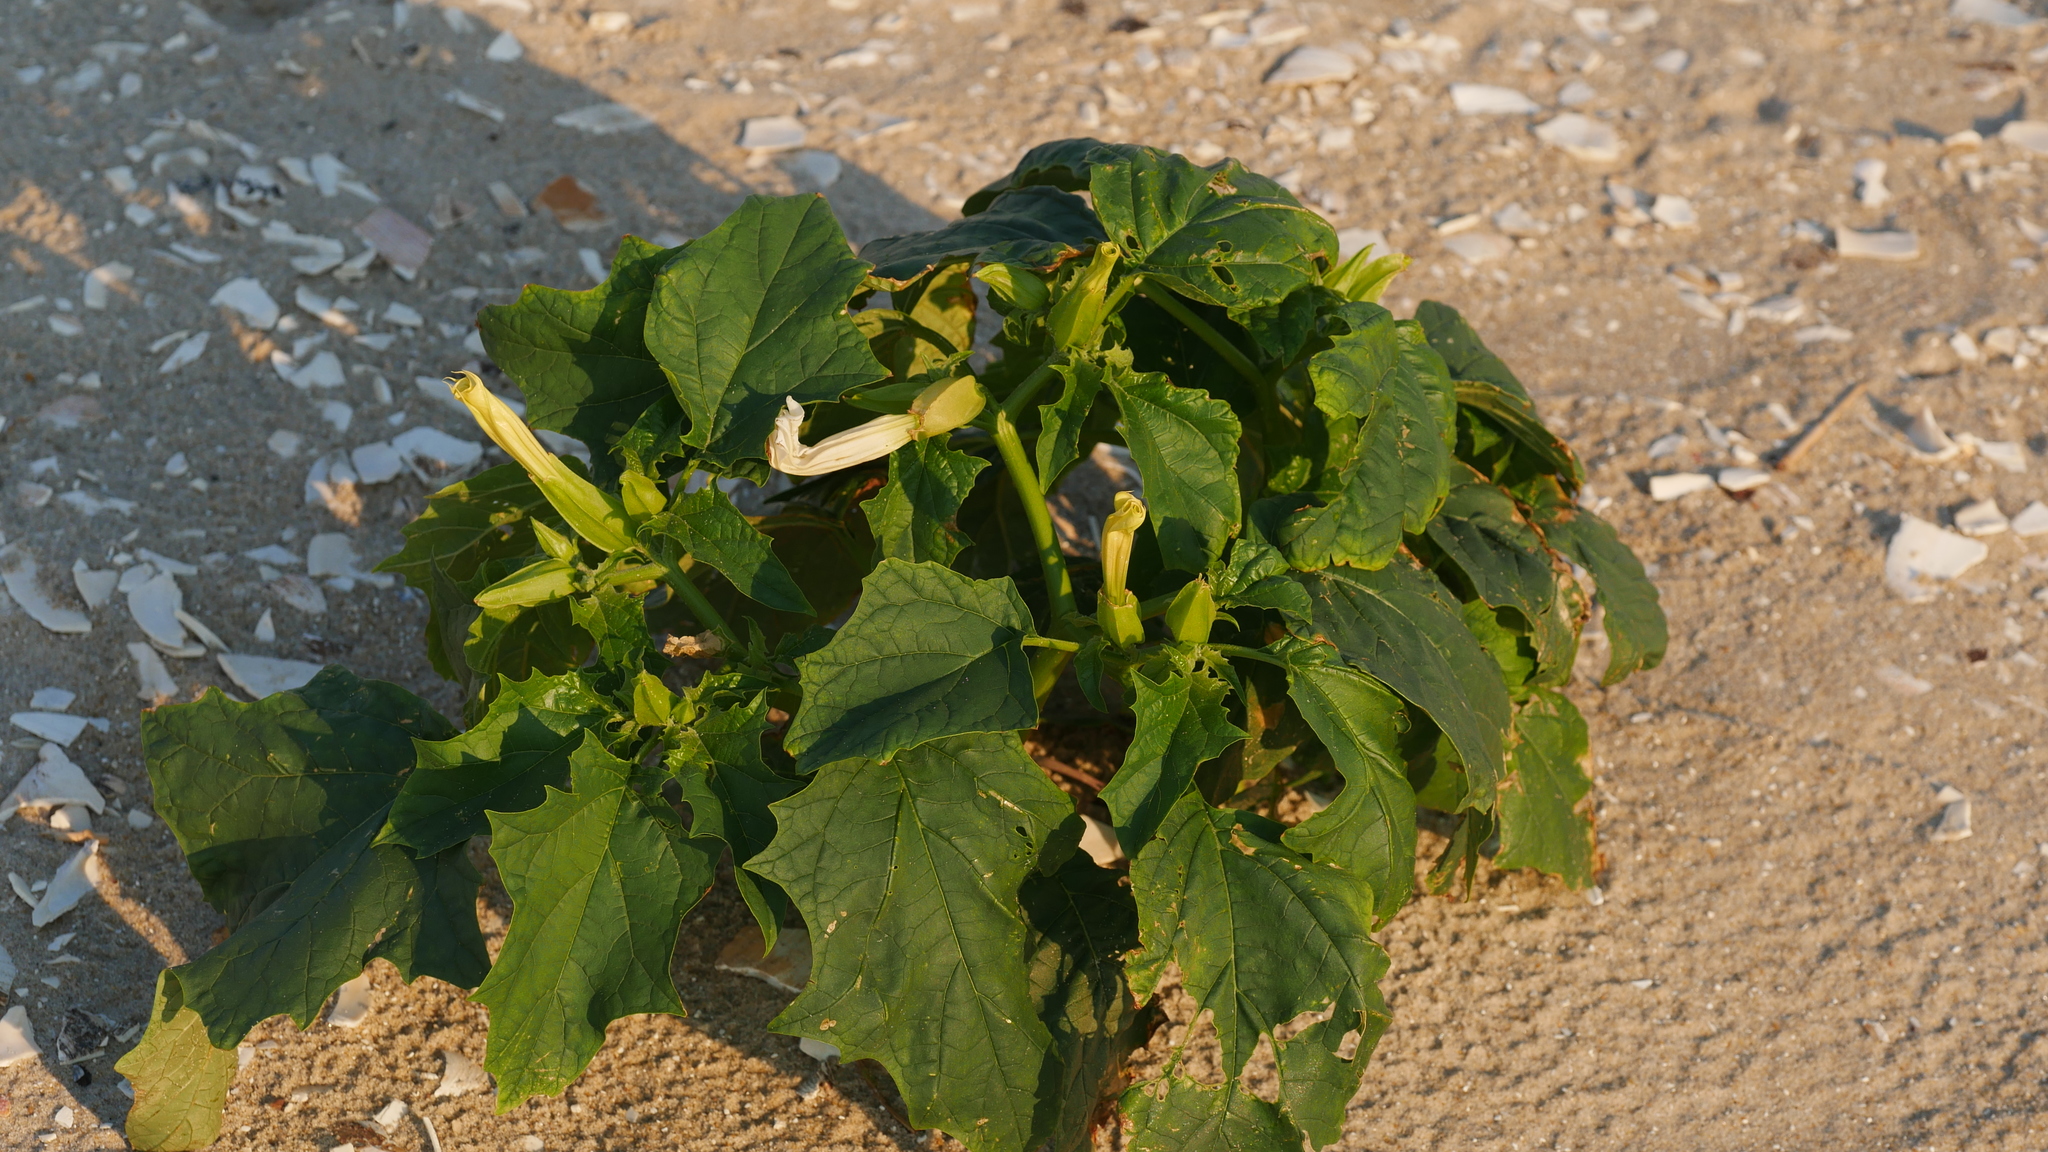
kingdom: Plantae
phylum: Tracheophyta
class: Magnoliopsida
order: Solanales
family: Solanaceae
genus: Datura
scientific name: Datura stramonium
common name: Thorn-apple
